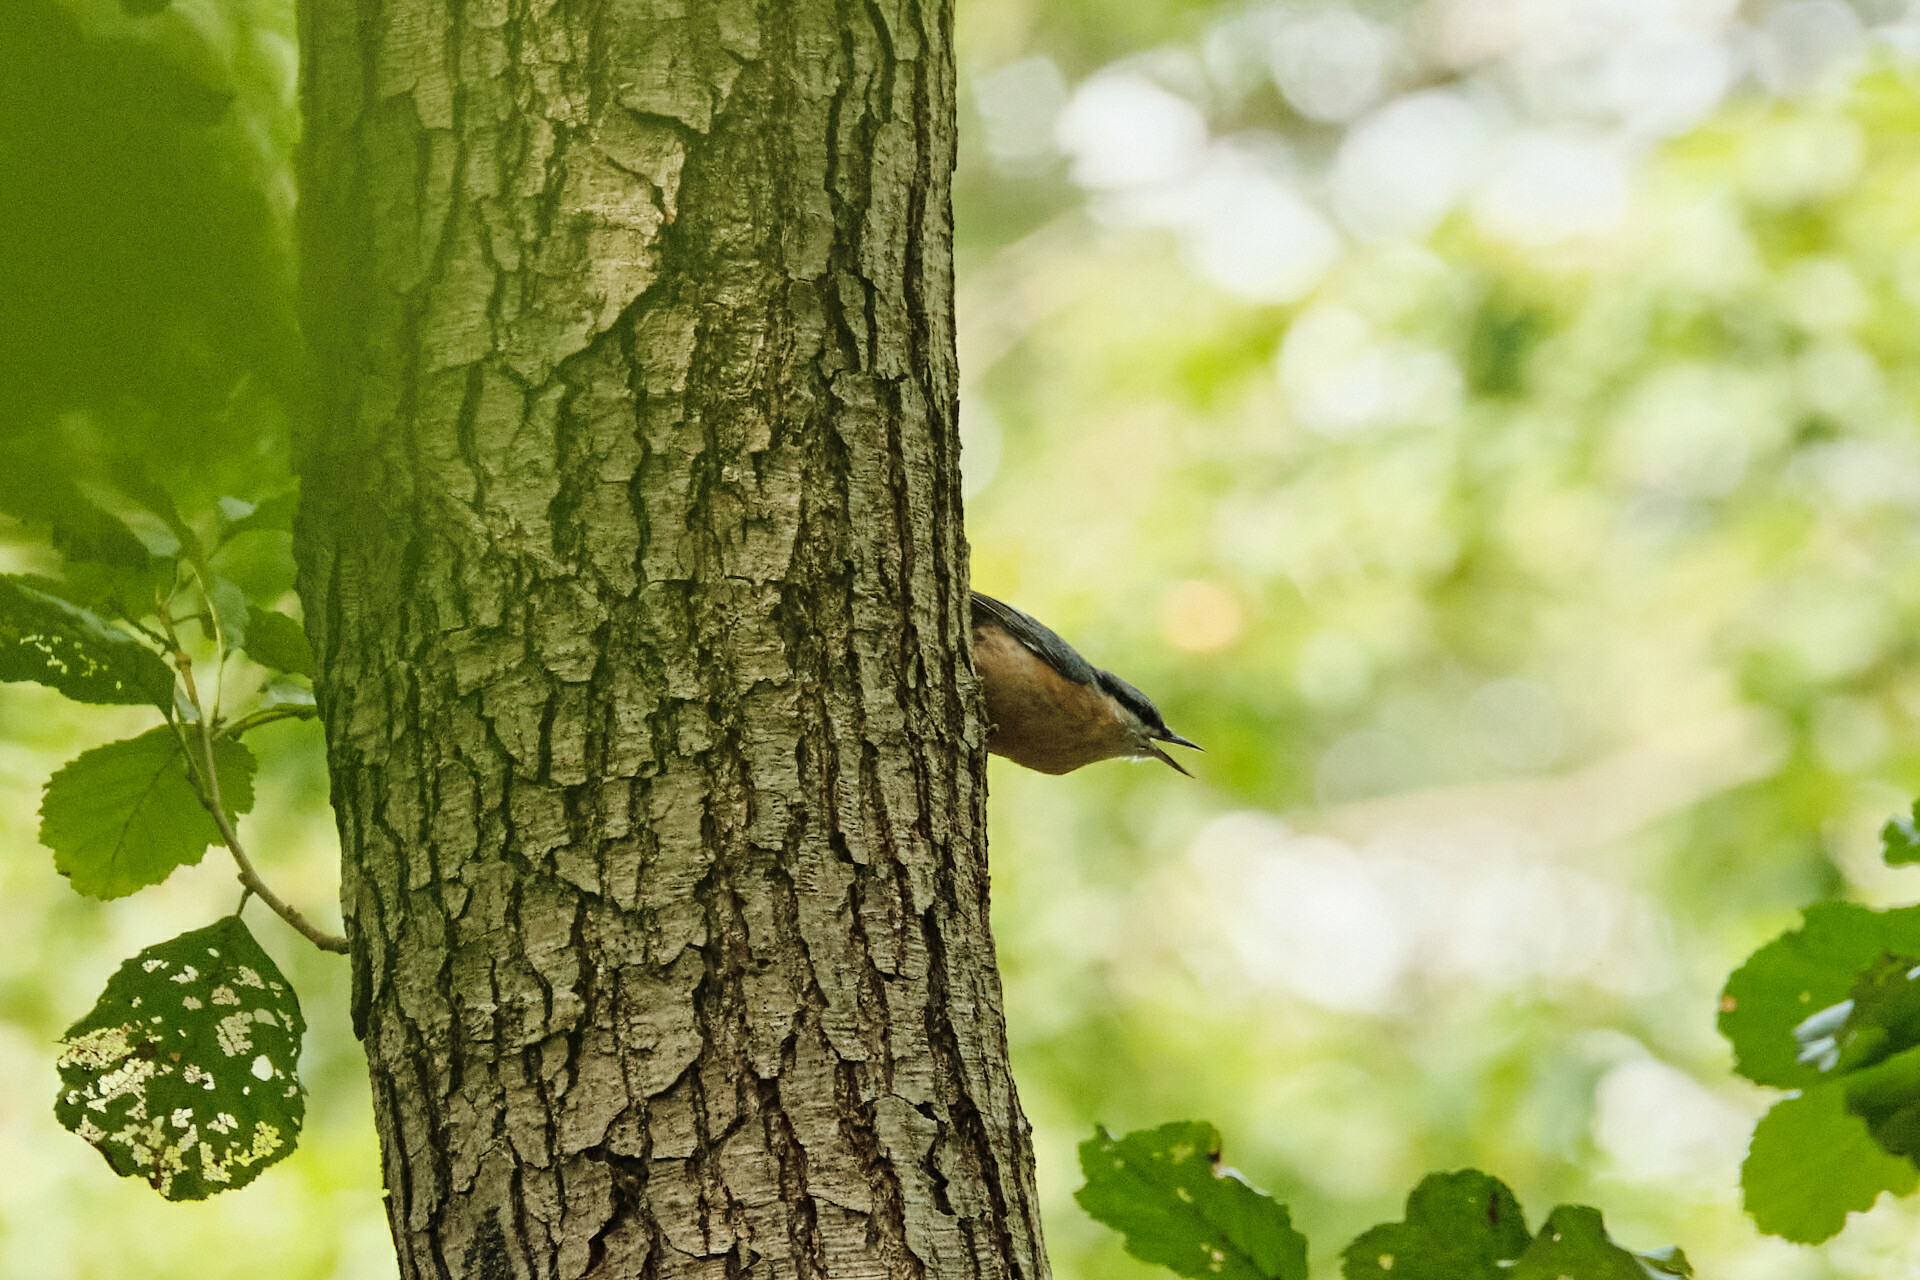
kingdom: Animalia
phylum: Chordata
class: Aves
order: Passeriformes
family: Sittidae
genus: Sitta
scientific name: Sitta europaea
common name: Eurasian nuthatch
